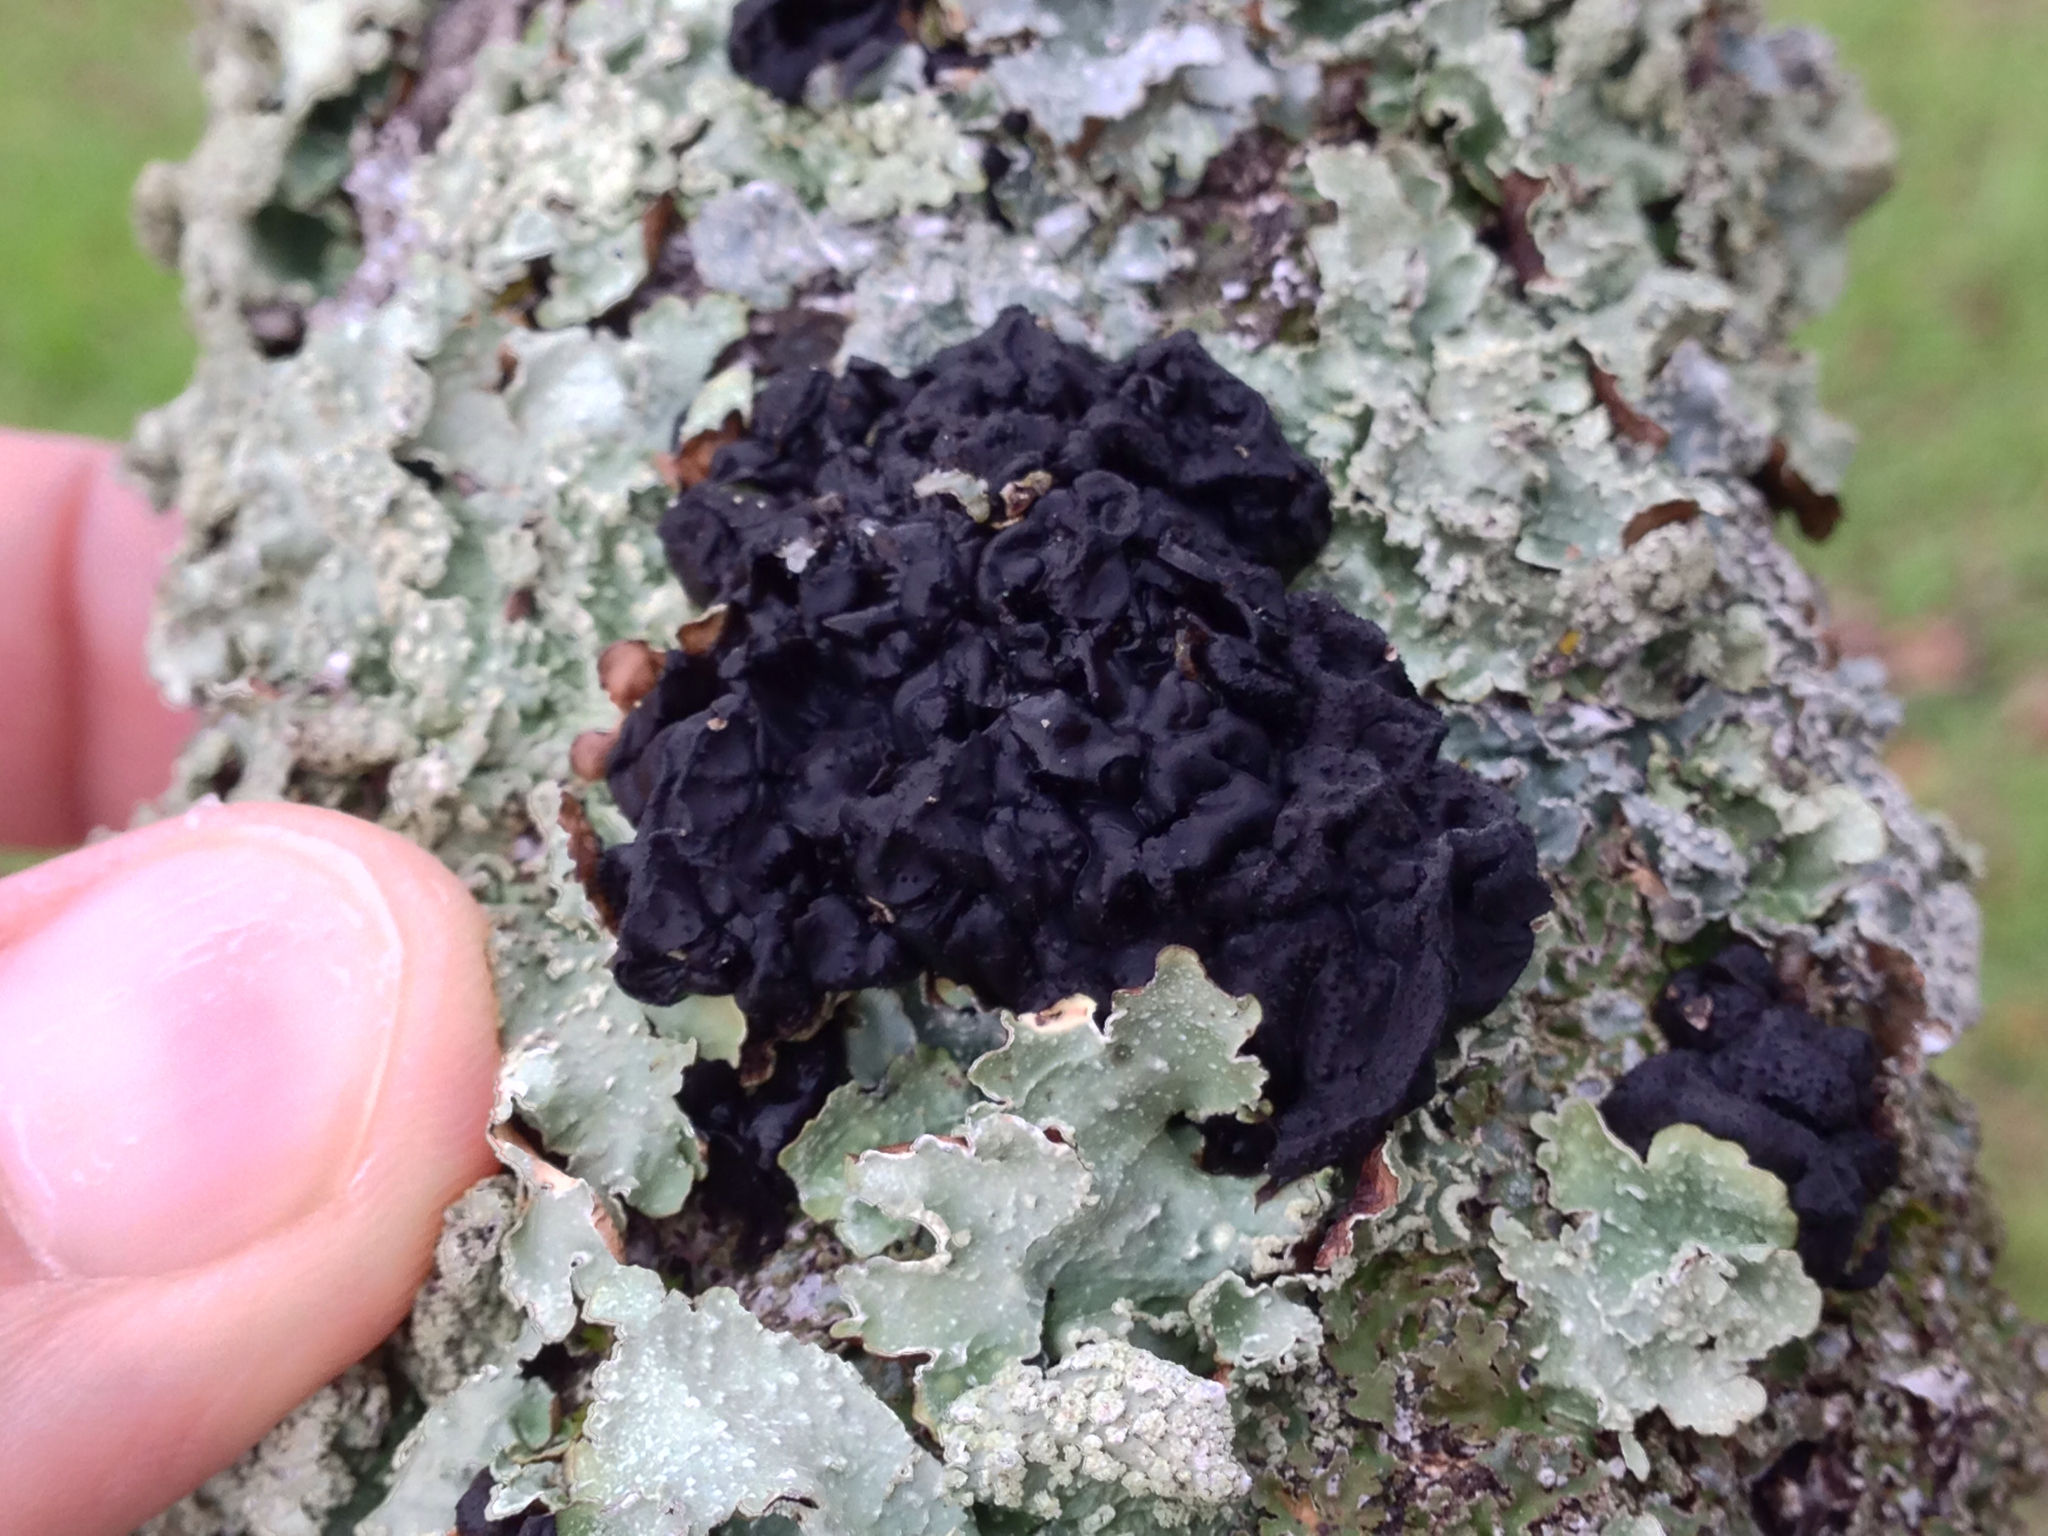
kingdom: Fungi
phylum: Basidiomycota
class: Agaricomycetes
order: Auriculariales
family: Auriculariaceae
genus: Exidia
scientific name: Exidia glandulosa
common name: Witches' butter
